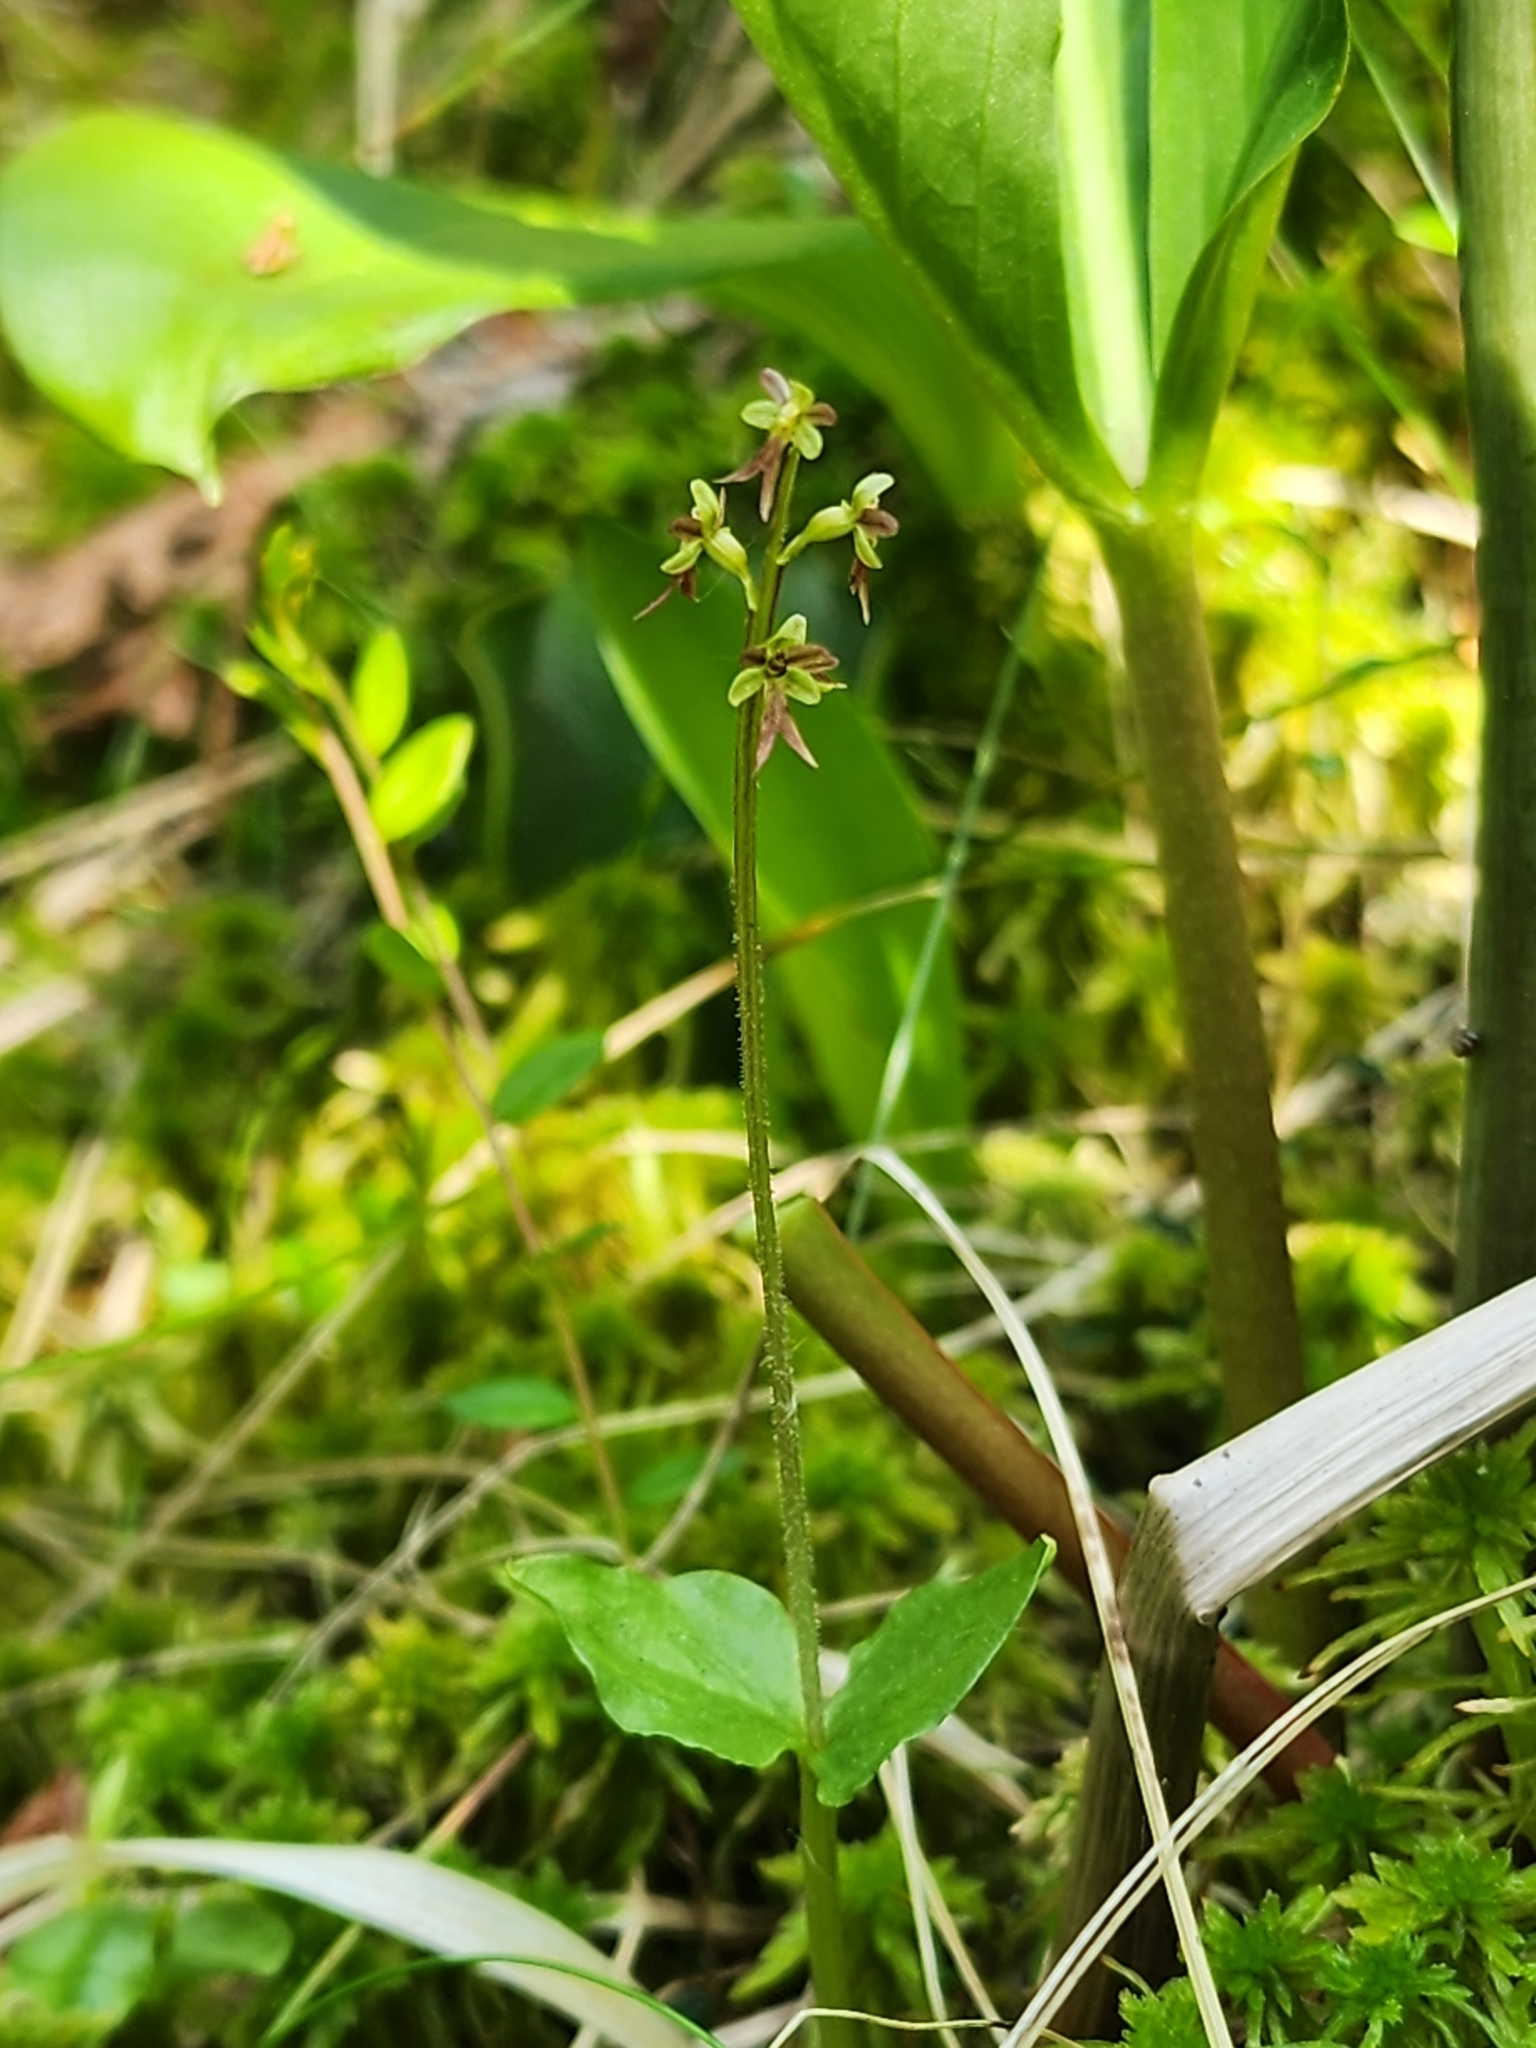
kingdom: Plantae
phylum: Tracheophyta
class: Liliopsida
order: Asparagales
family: Orchidaceae
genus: Neottia
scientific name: Neottia cordata
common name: Lesser twayblade
